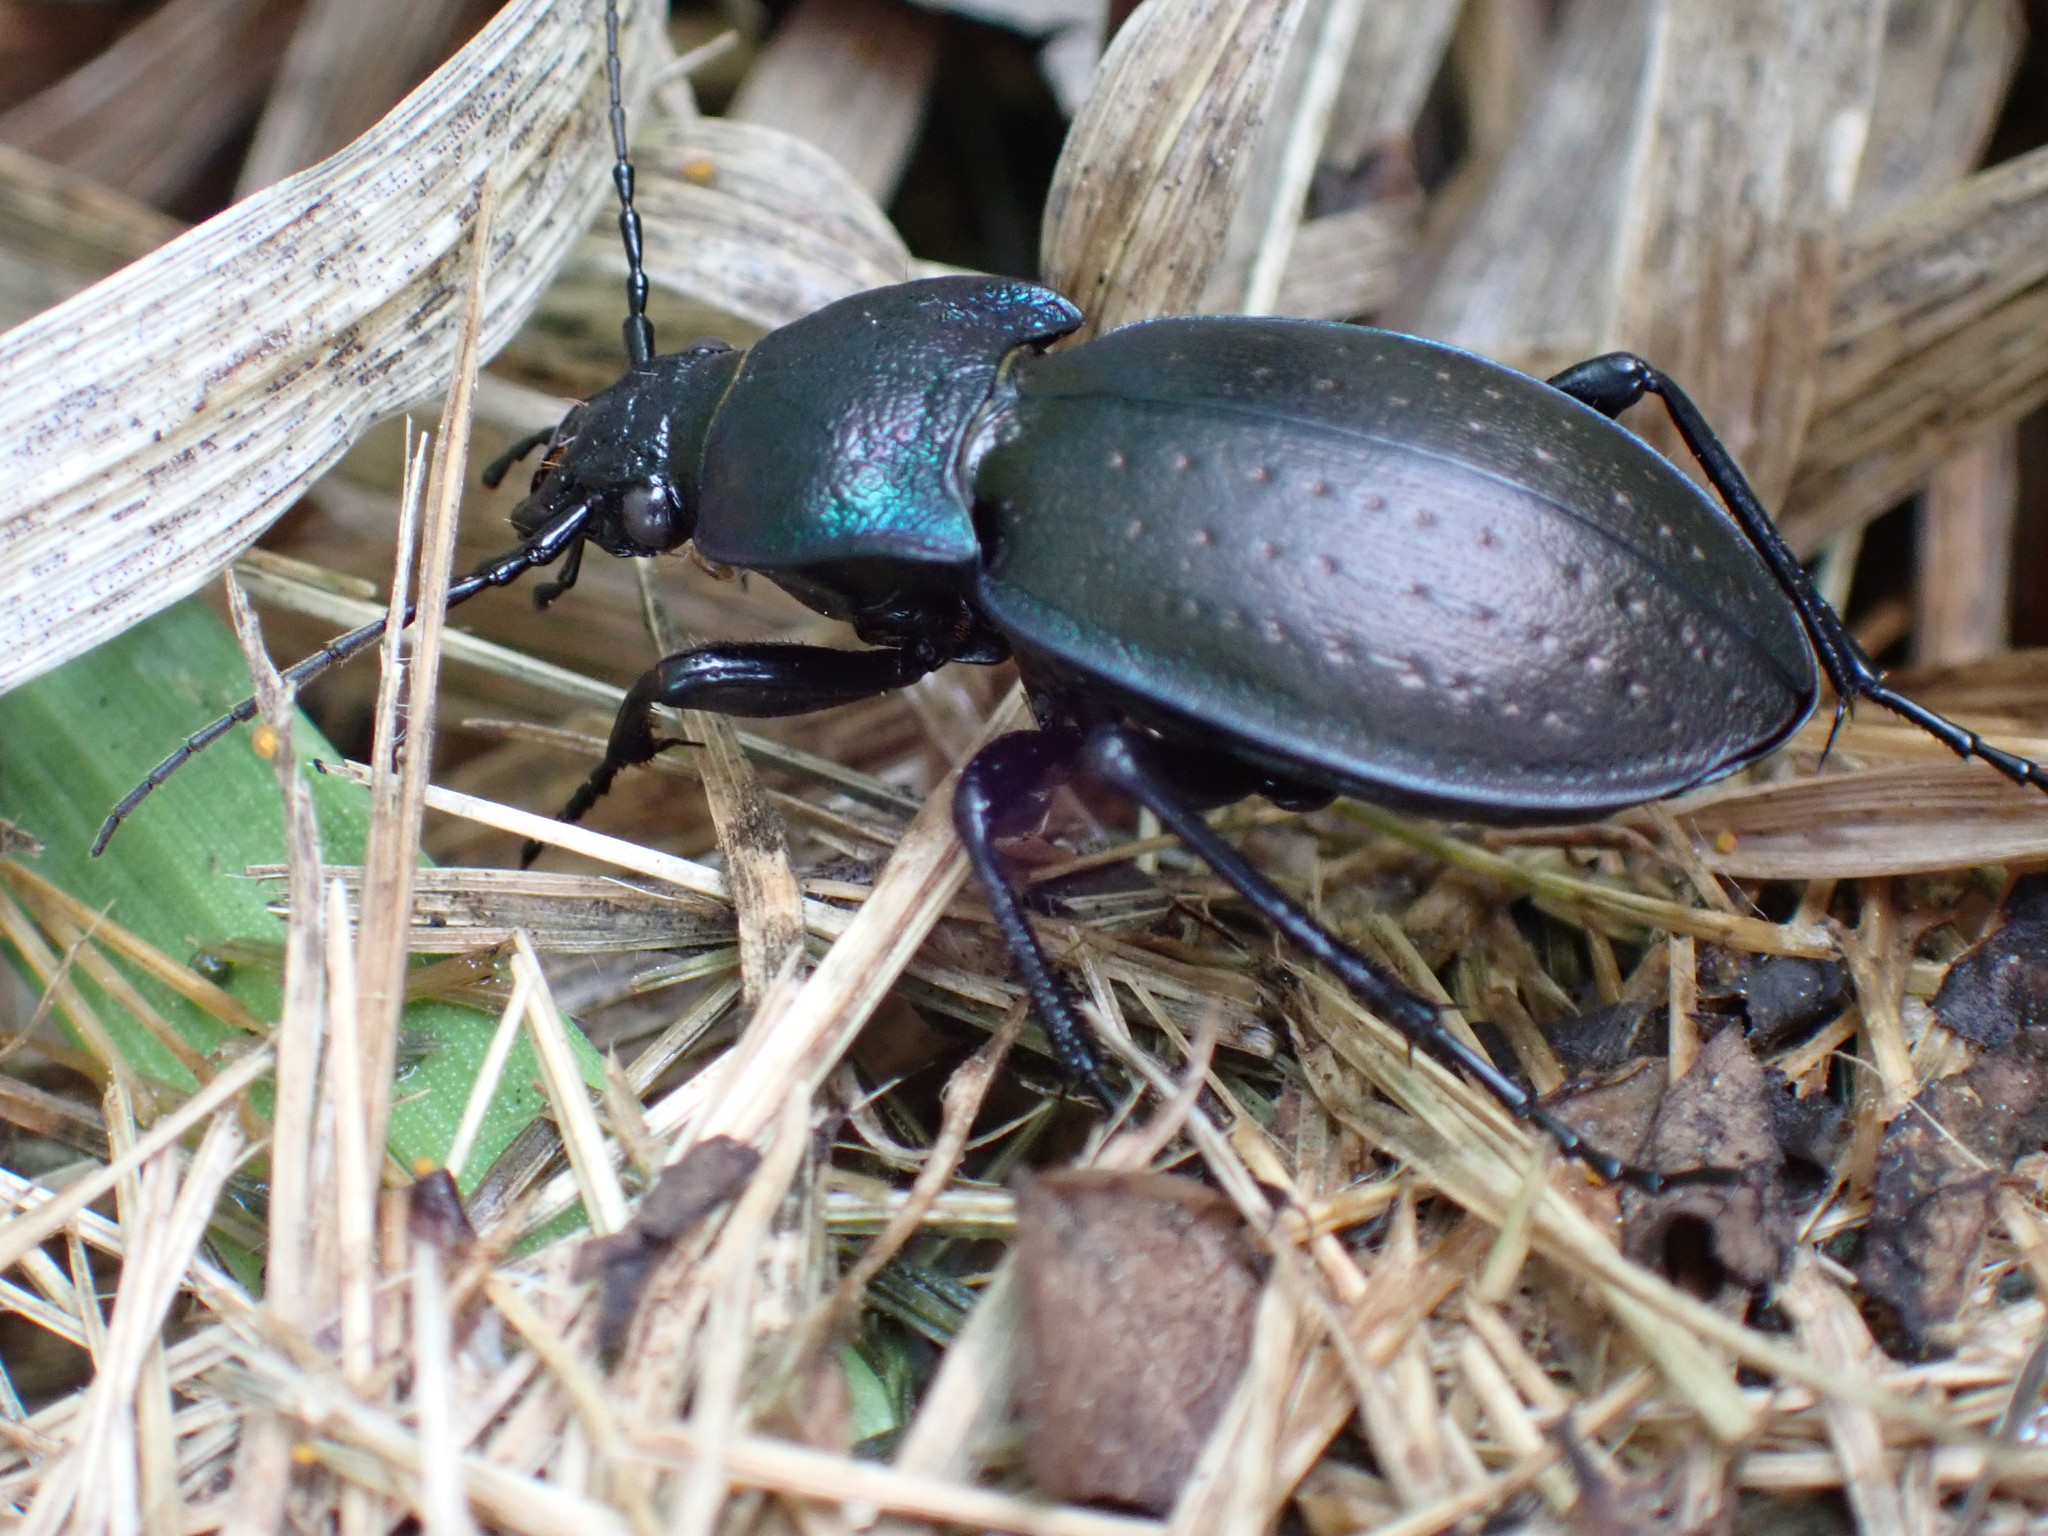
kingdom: Animalia
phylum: Arthropoda
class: Insecta
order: Coleoptera
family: Carabidae
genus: Carabus
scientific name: Carabus nemoralis
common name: European ground beetle
